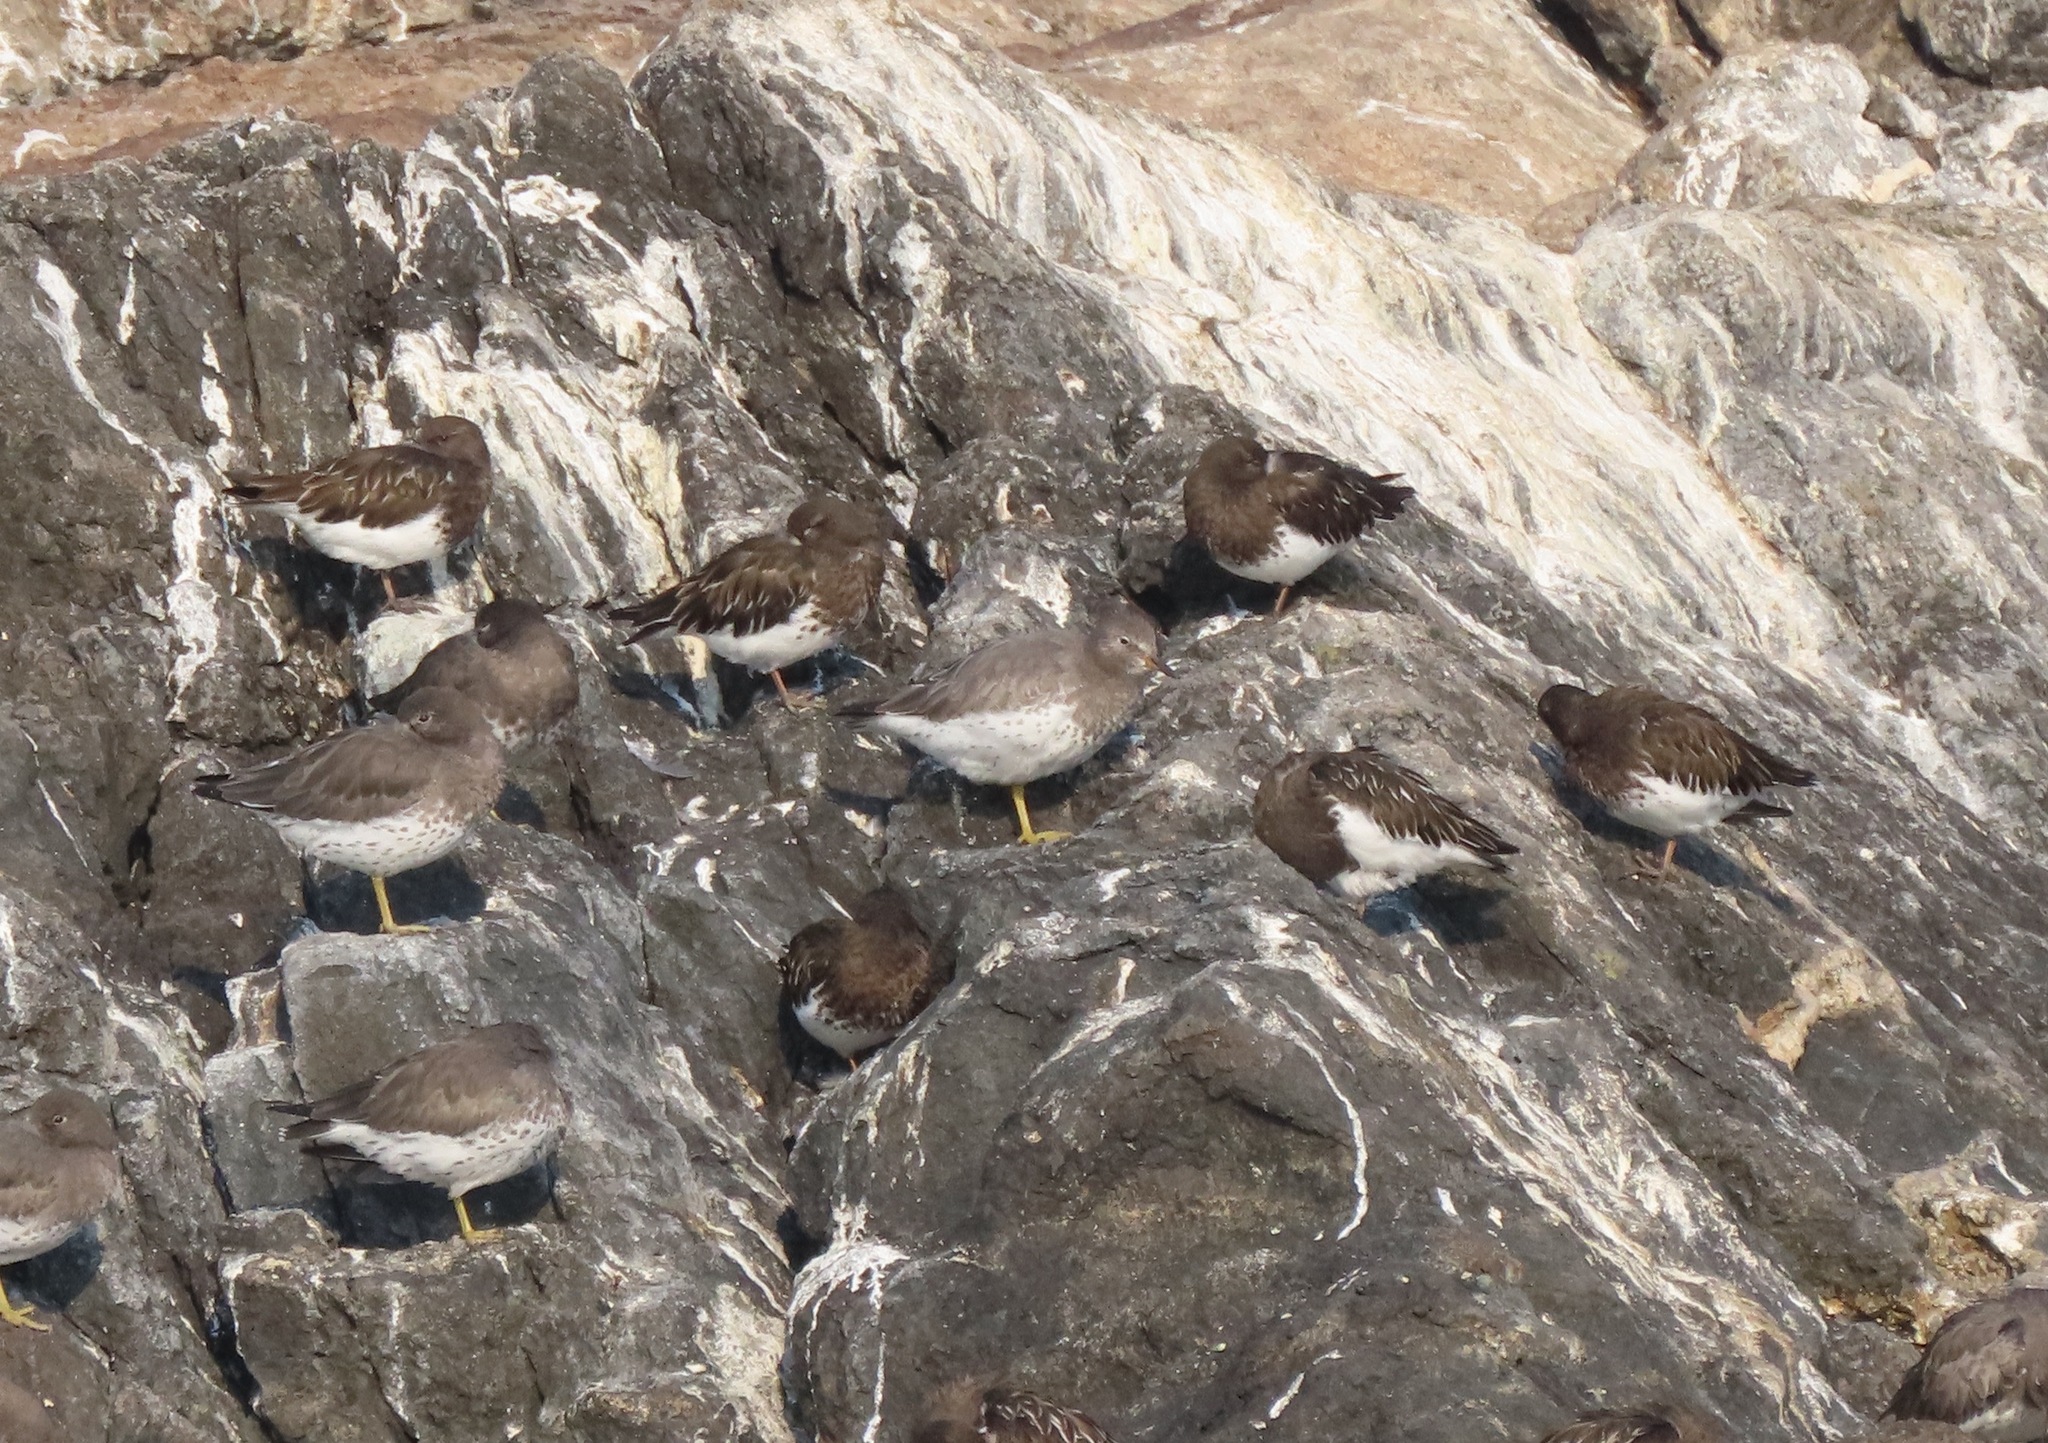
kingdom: Animalia
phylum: Chordata
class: Aves
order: Charadriiformes
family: Scolopacidae
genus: Arenaria
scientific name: Arenaria melanocephala
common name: Black turnstone
